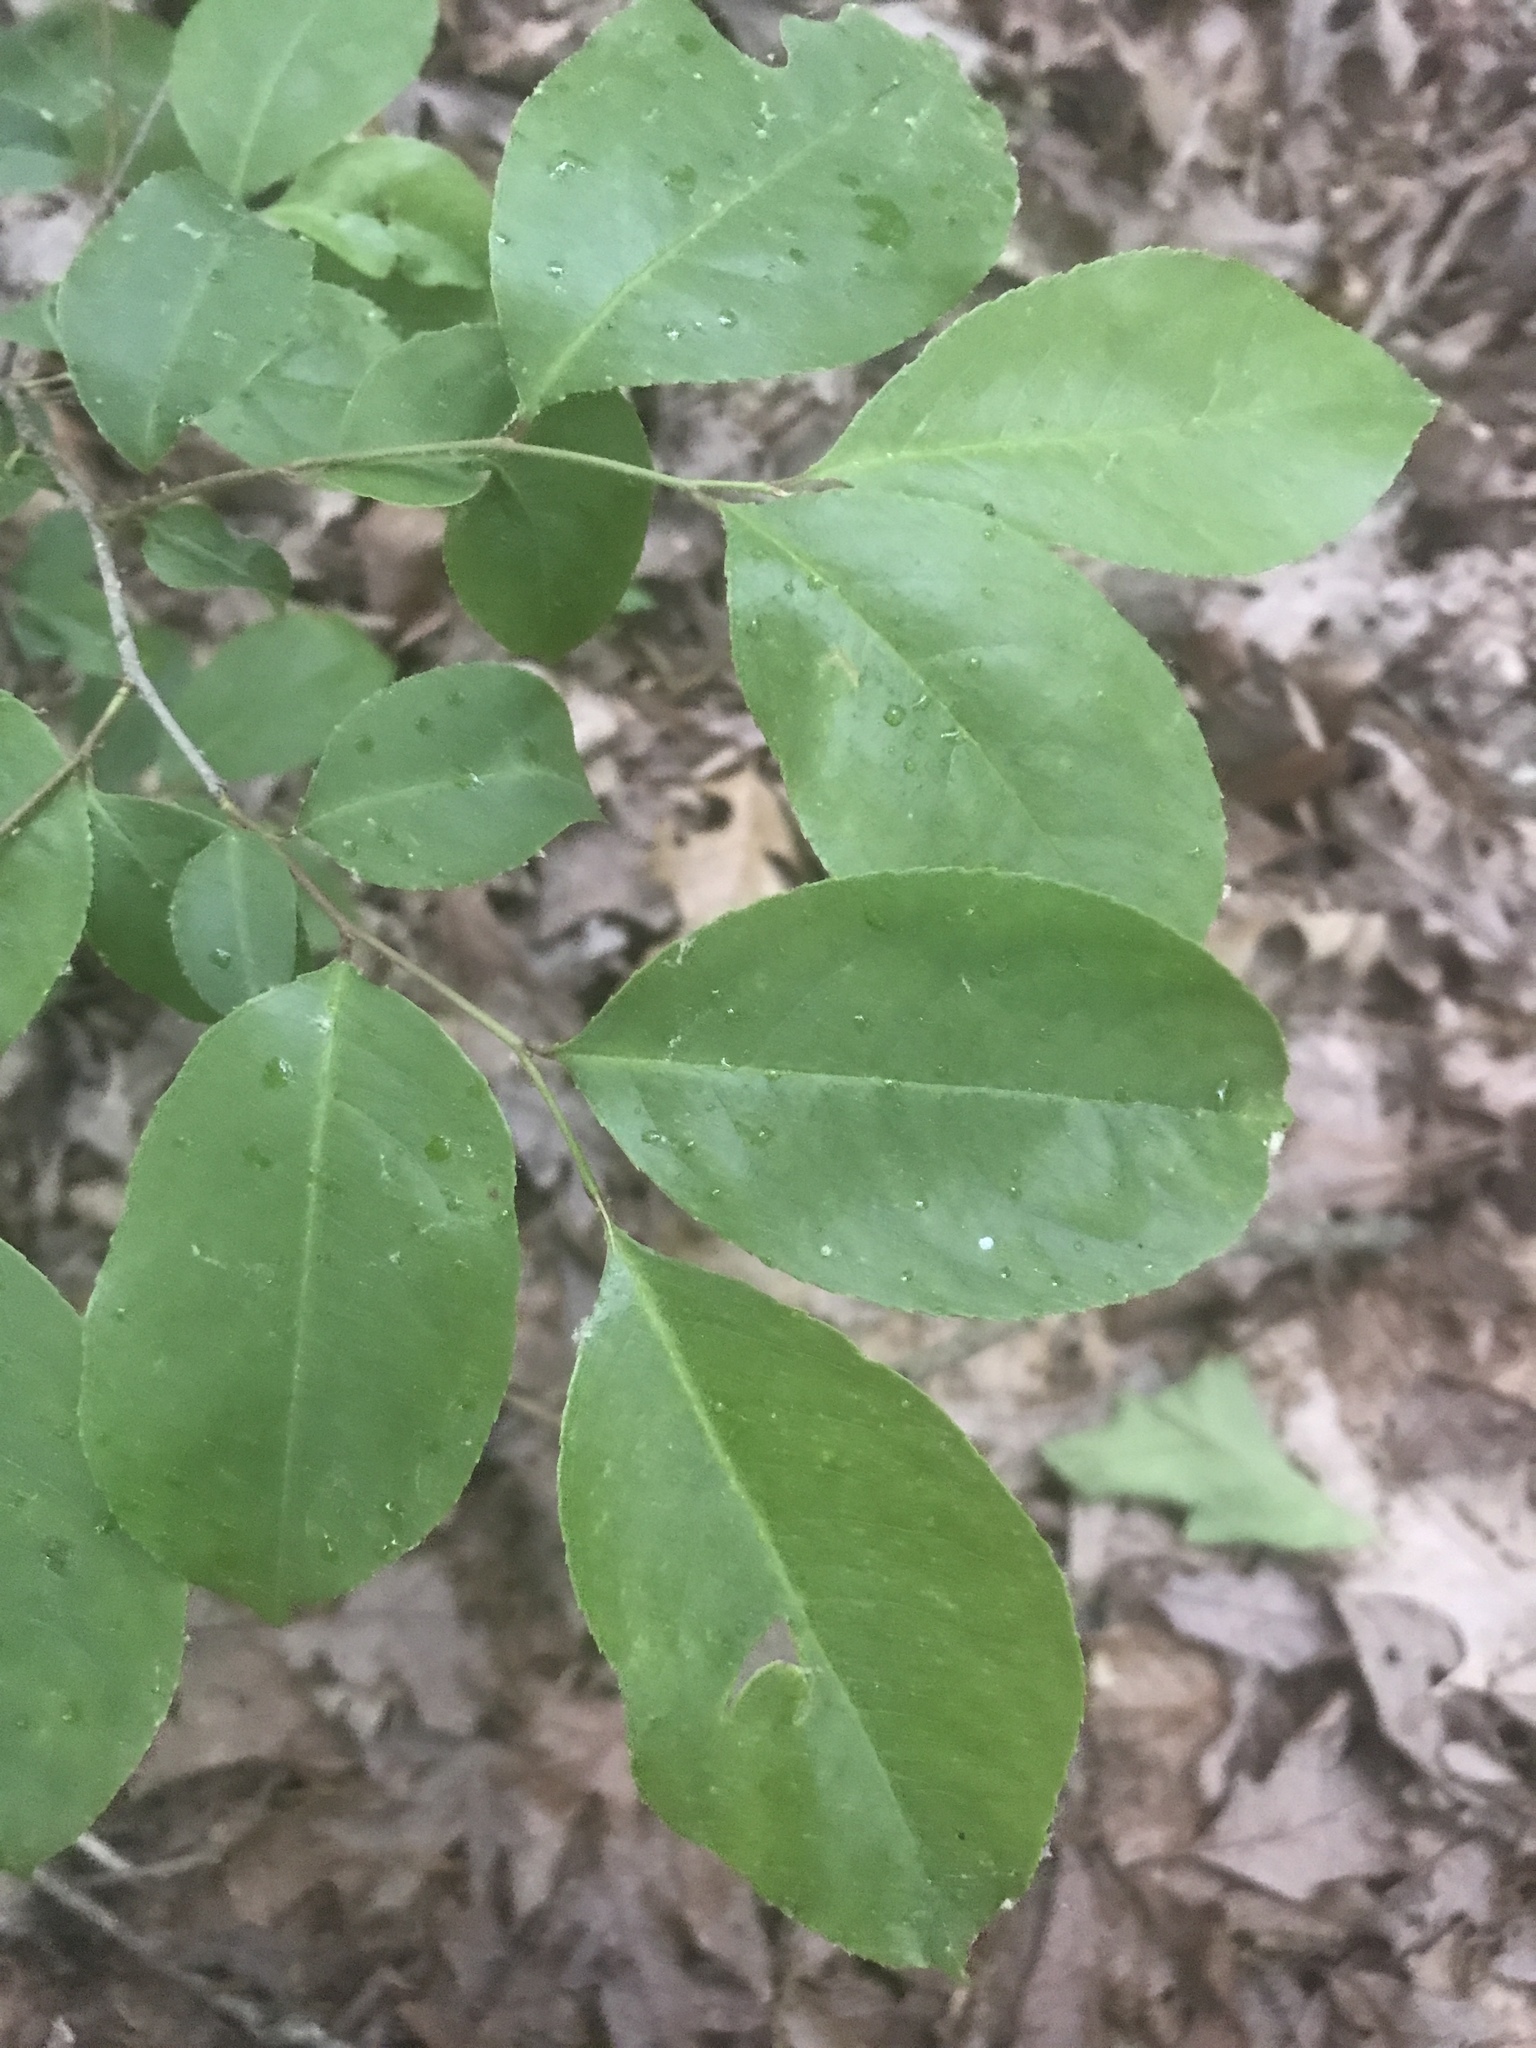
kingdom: Plantae
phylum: Tracheophyta
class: Magnoliopsida
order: Rosales
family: Rosaceae
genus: Prunus
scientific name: Prunus serotina
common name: Black cherry
